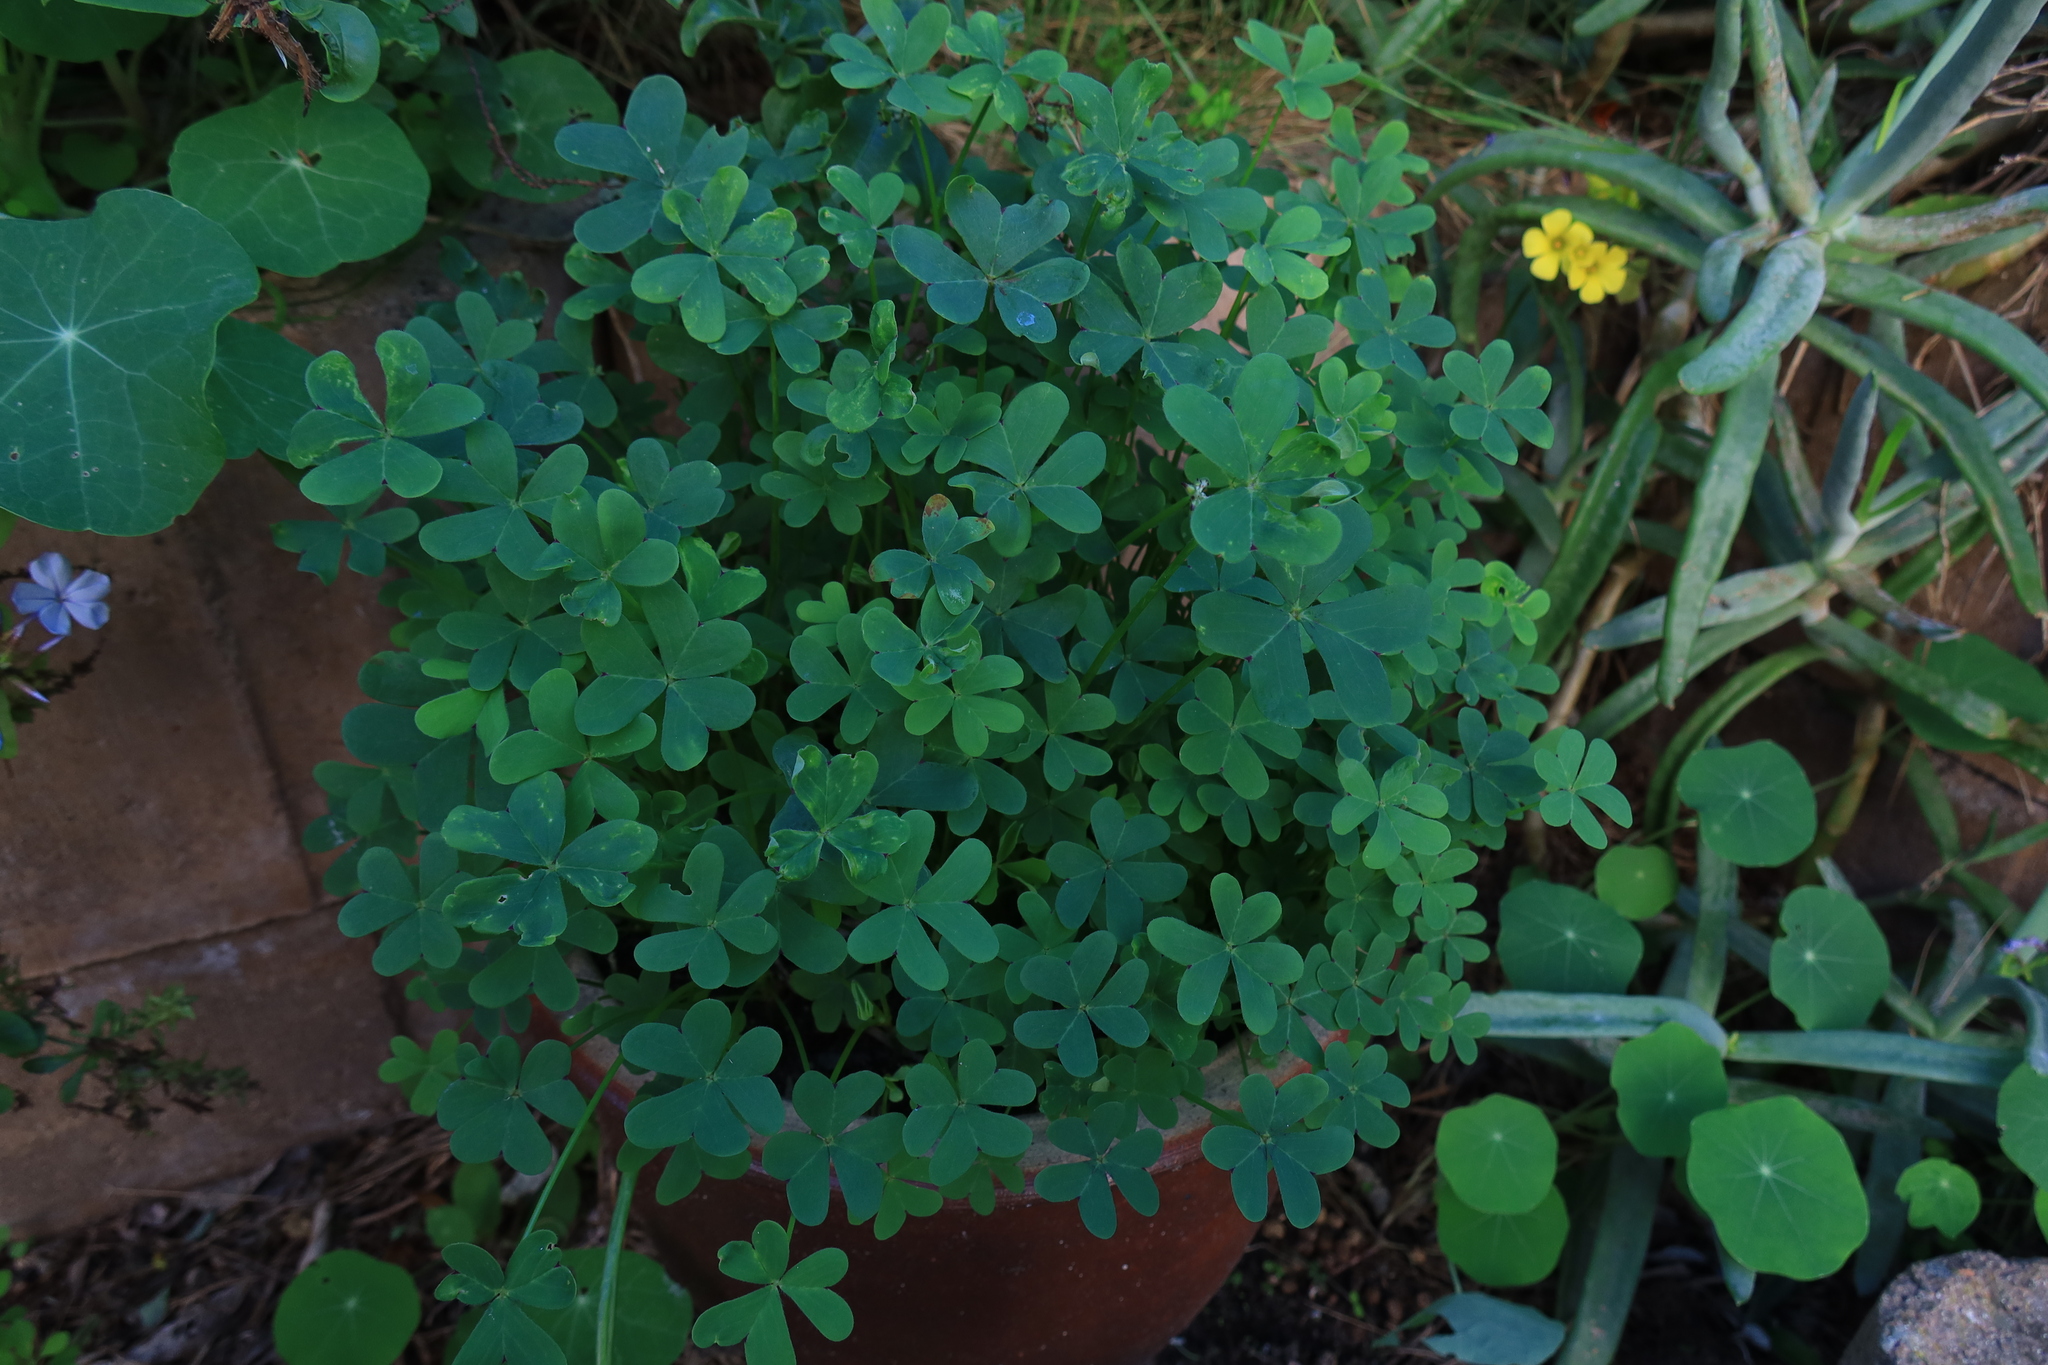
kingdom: Plantae
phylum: Tracheophyta
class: Magnoliopsida
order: Oxalidales
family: Oxalidaceae
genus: Oxalis
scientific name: Oxalis pes-caprae
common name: Bermuda-buttercup
